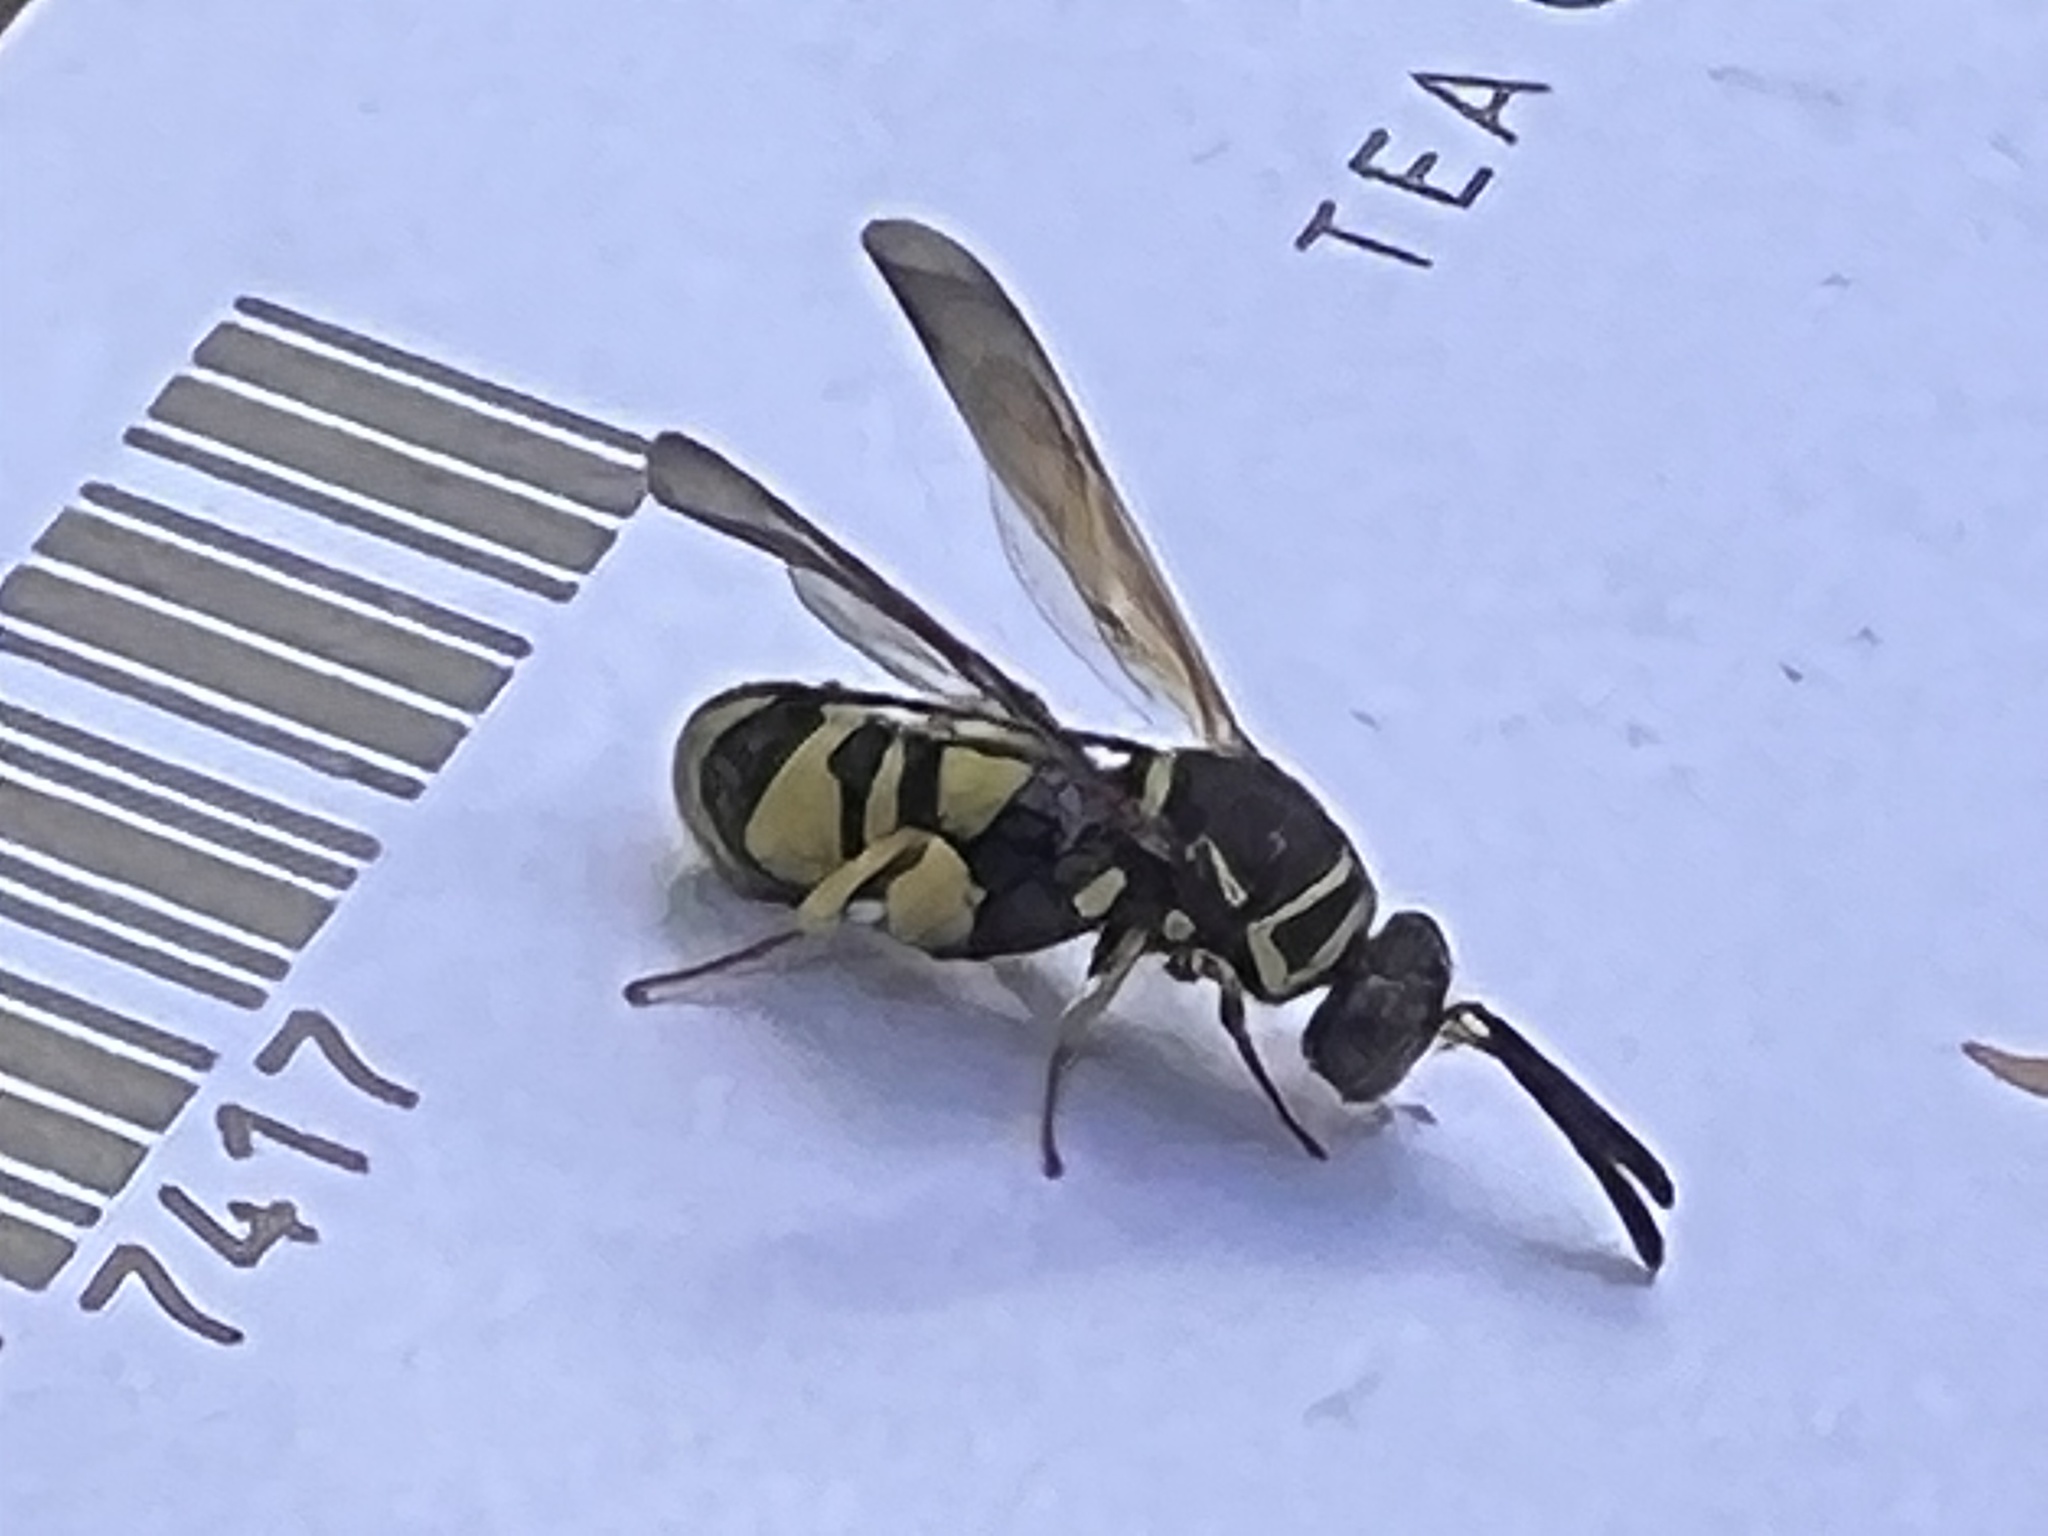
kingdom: Animalia
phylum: Arthropoda
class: Insecta
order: Hymenoptera
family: Leucospidae
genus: Leucospis
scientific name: Leucospis affinis
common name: Wasp
